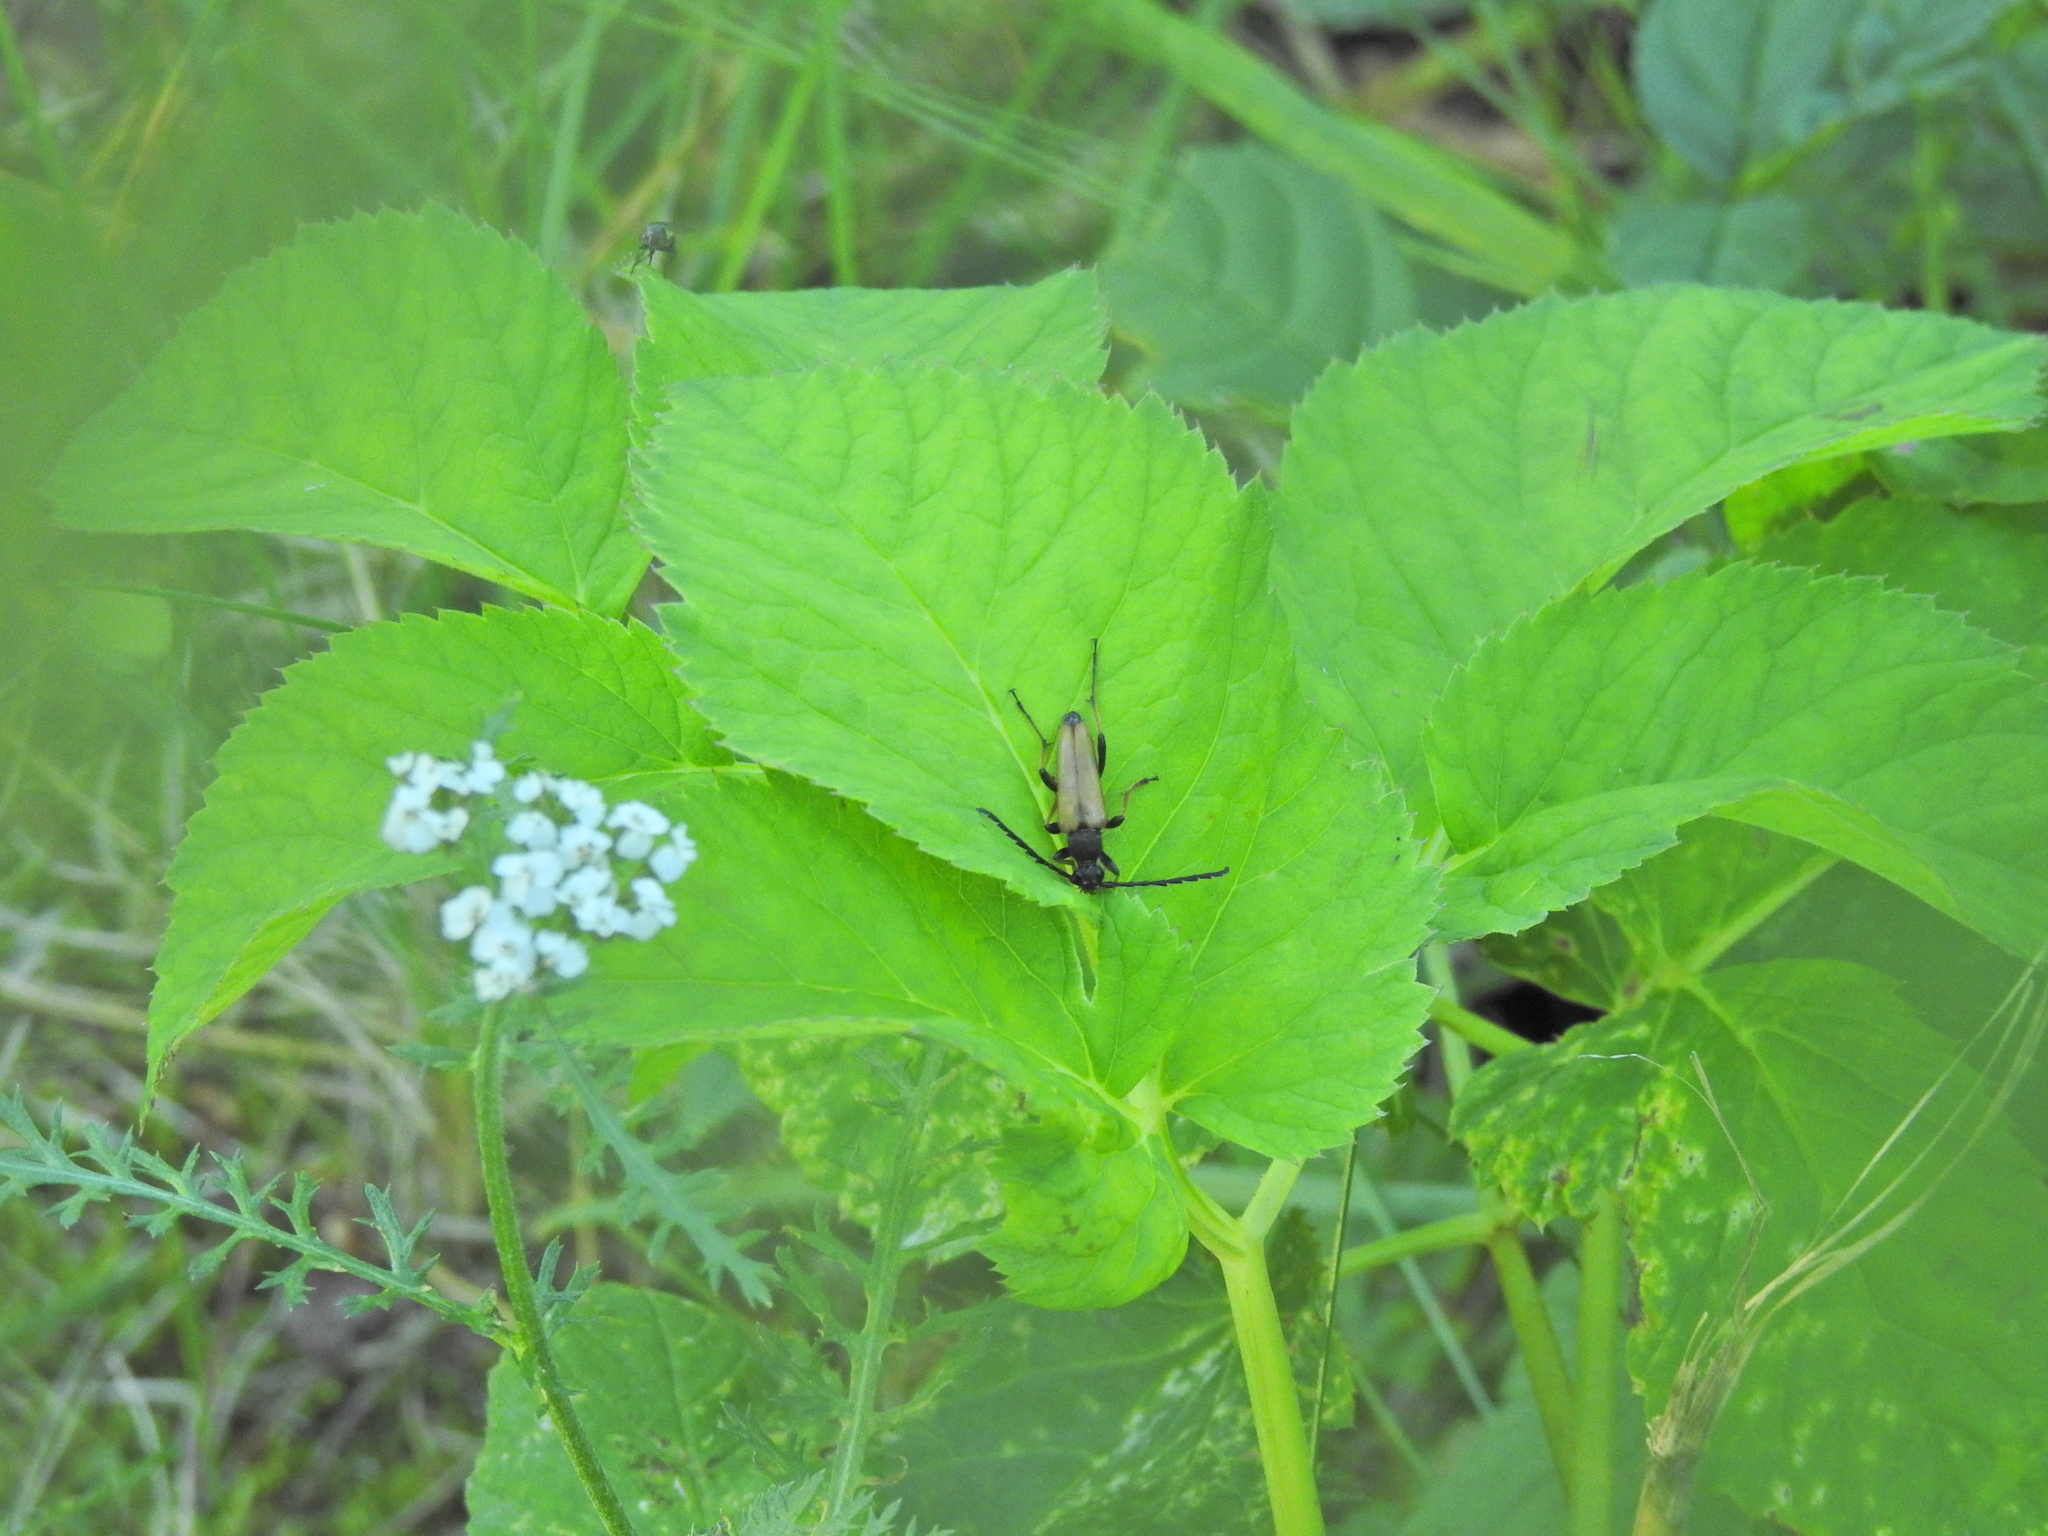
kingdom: Animalia
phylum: Arthropoda
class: Insecta
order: Coleoptera
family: Cerambycidae
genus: Stictoleptura
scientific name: Stictoleptura rubra
